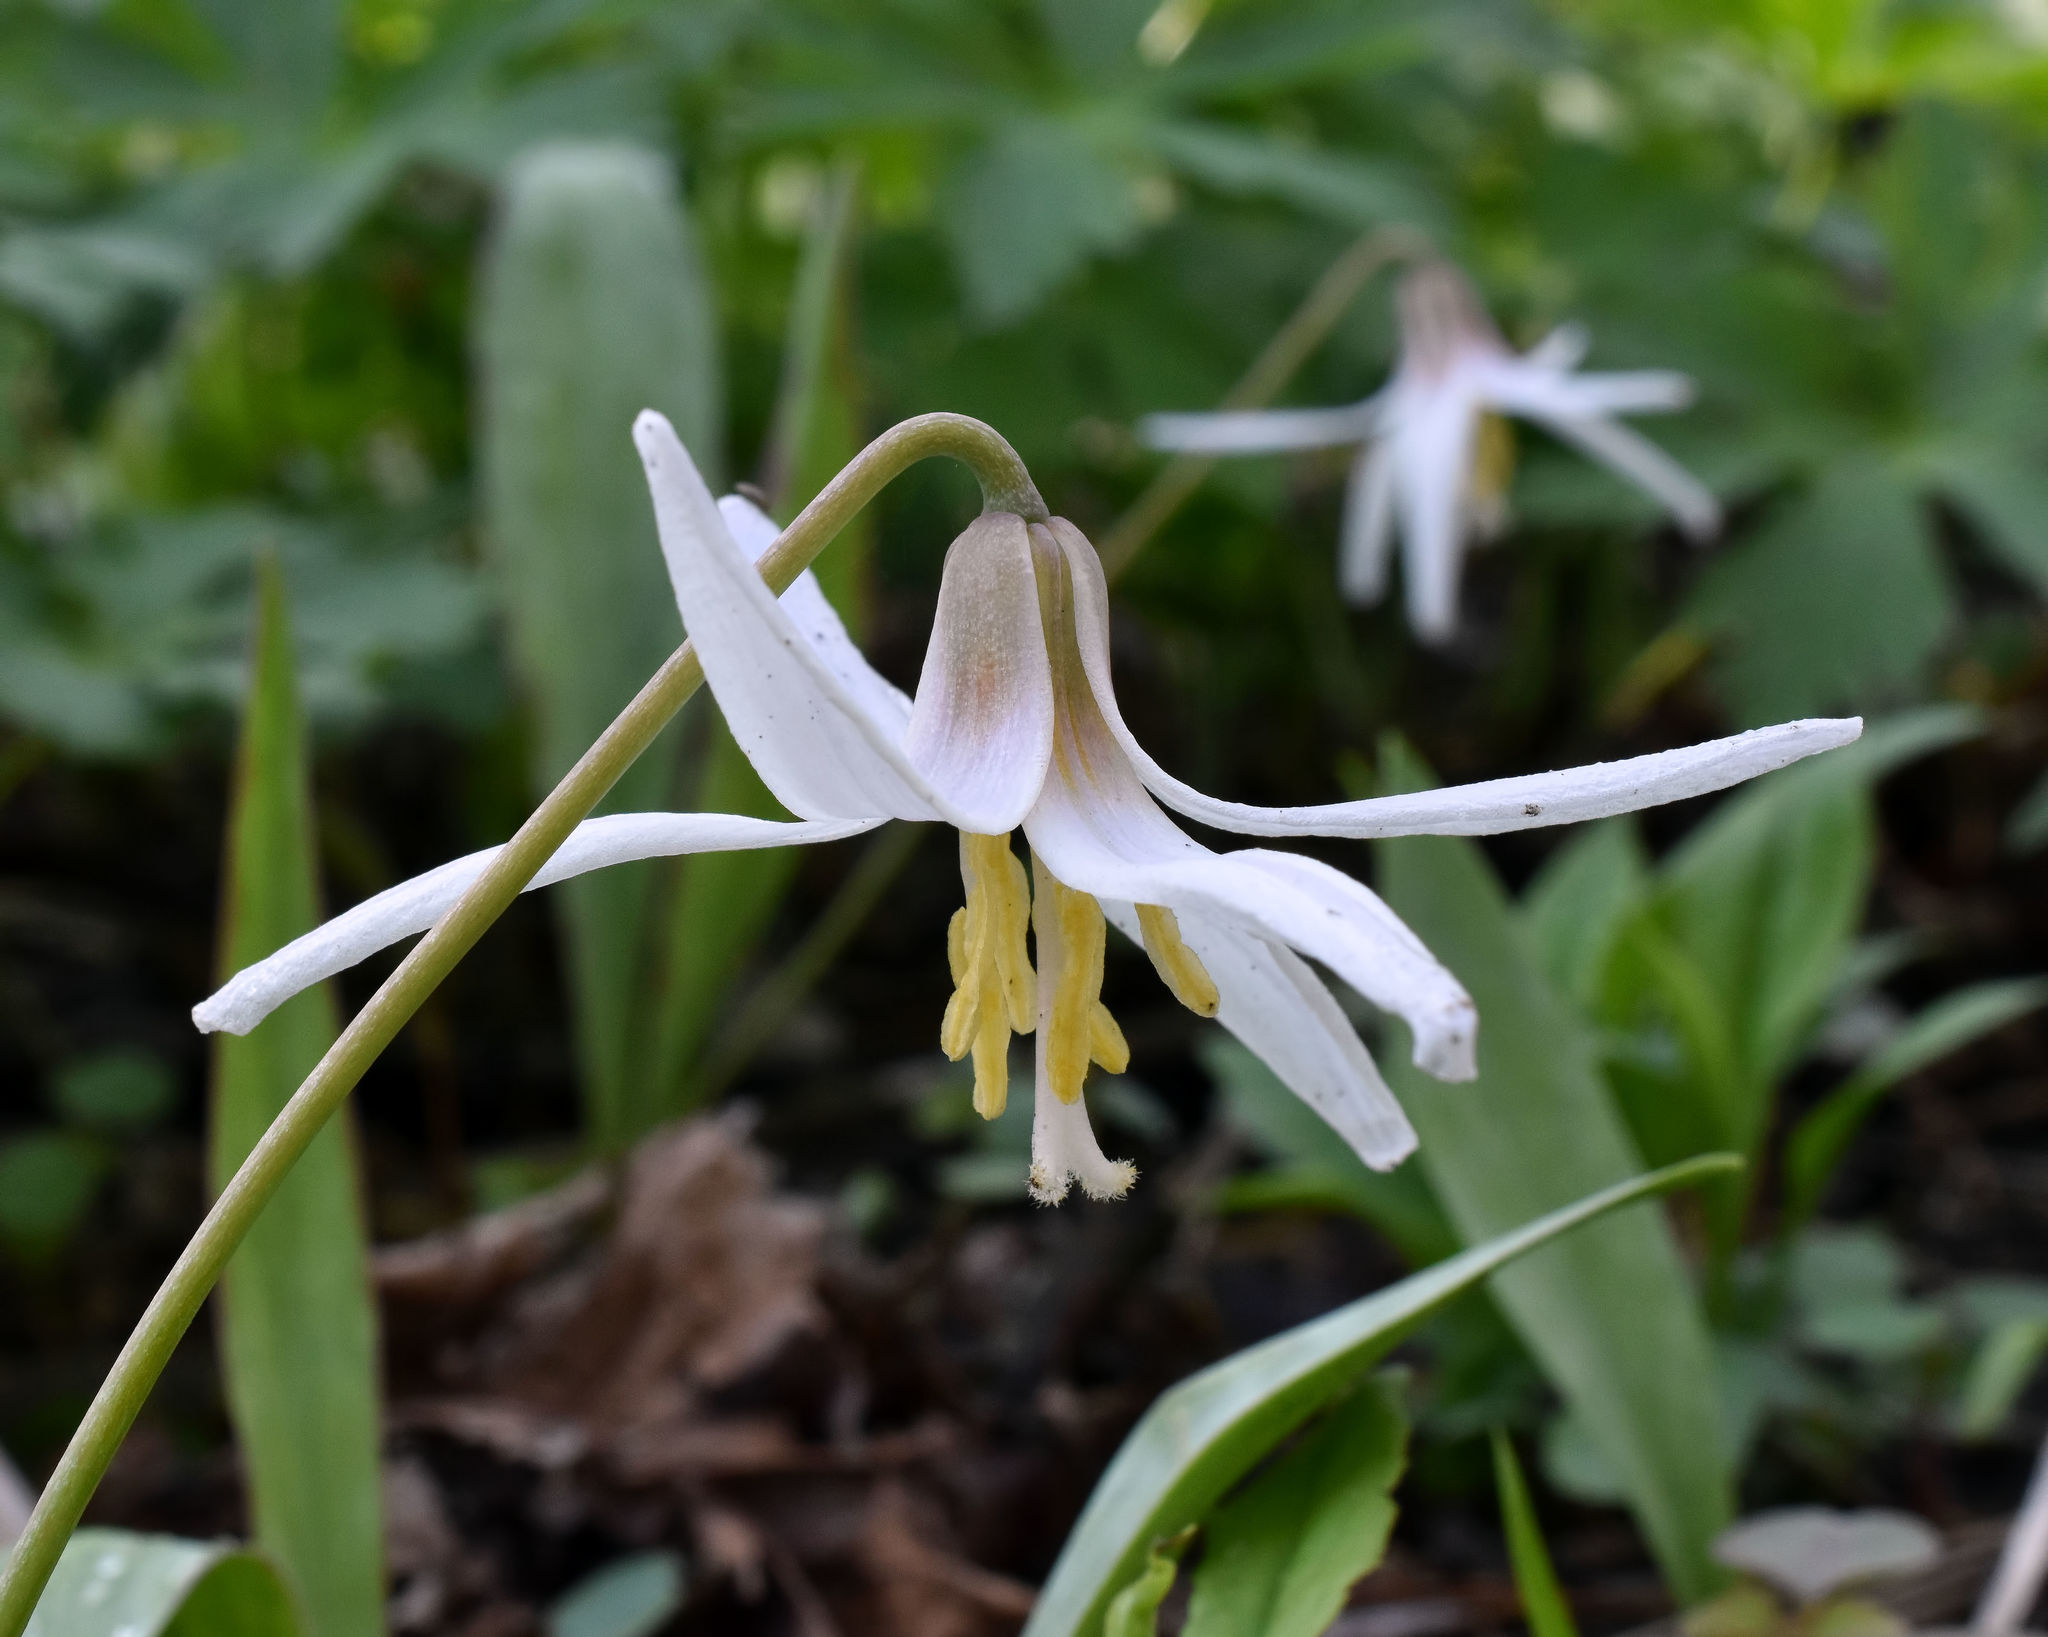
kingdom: Plantae
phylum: Tracheophyta
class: Liliopsida
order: Liliales
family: Liliaceae
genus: Erythronium
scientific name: Erythronium albidum
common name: White trout-lily
